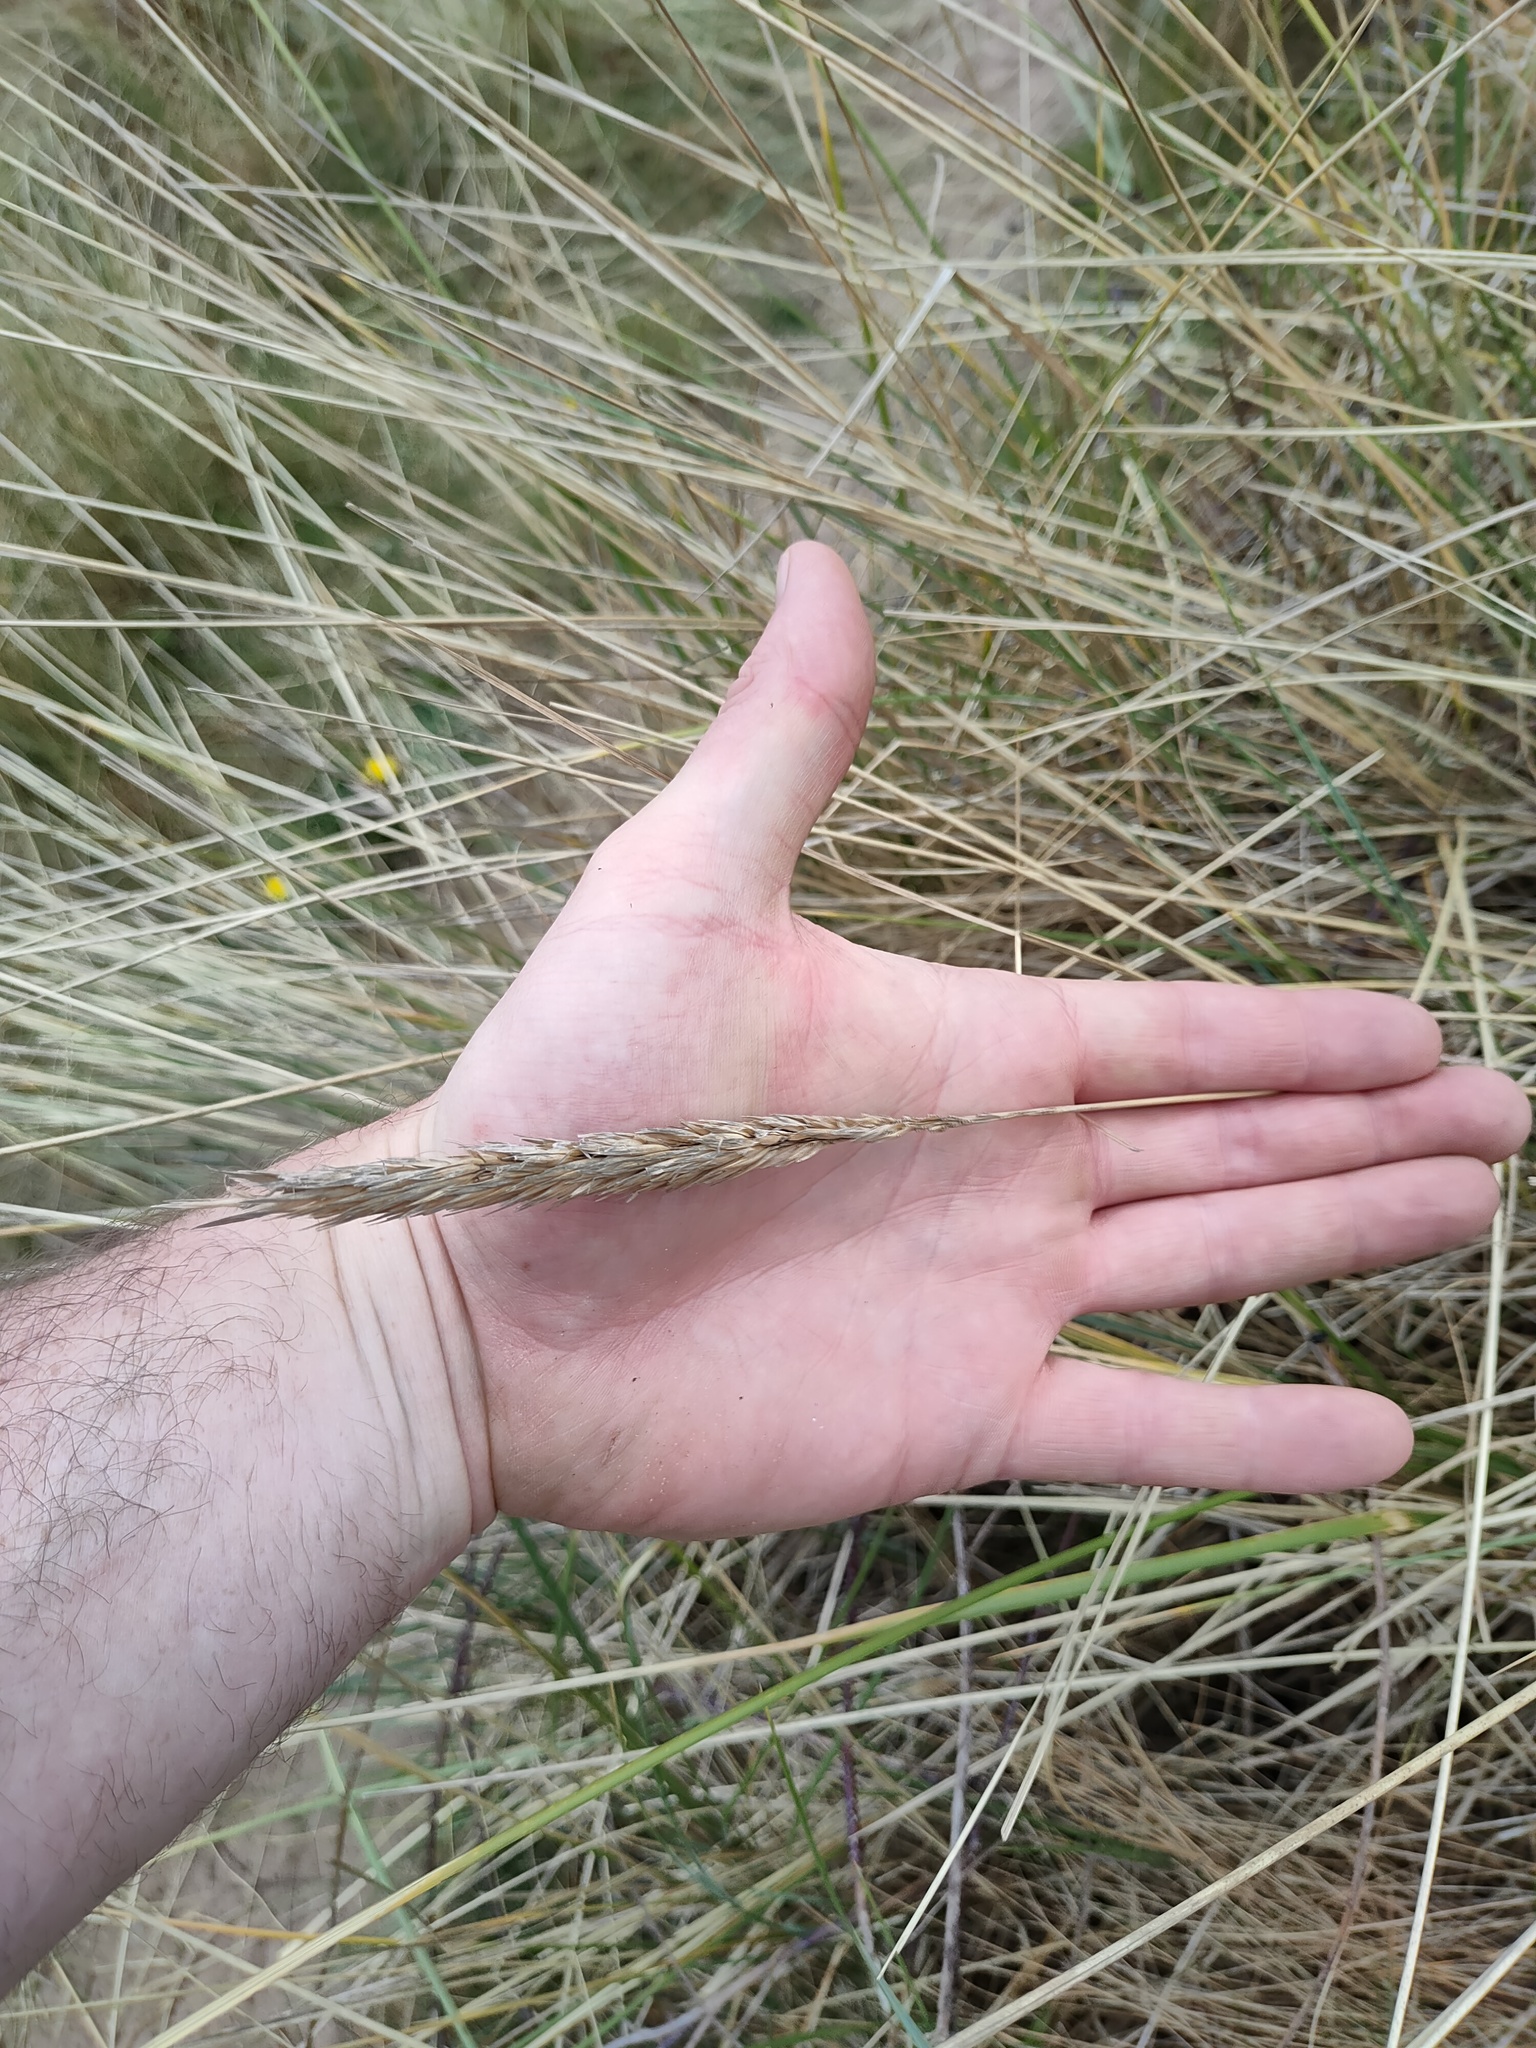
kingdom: Plantae
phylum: Tracheophyta
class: Liliopsida
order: Poales
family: Poaceae
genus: Calamagrostis
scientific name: Calamagrostis arenaria
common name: European beachgrass
